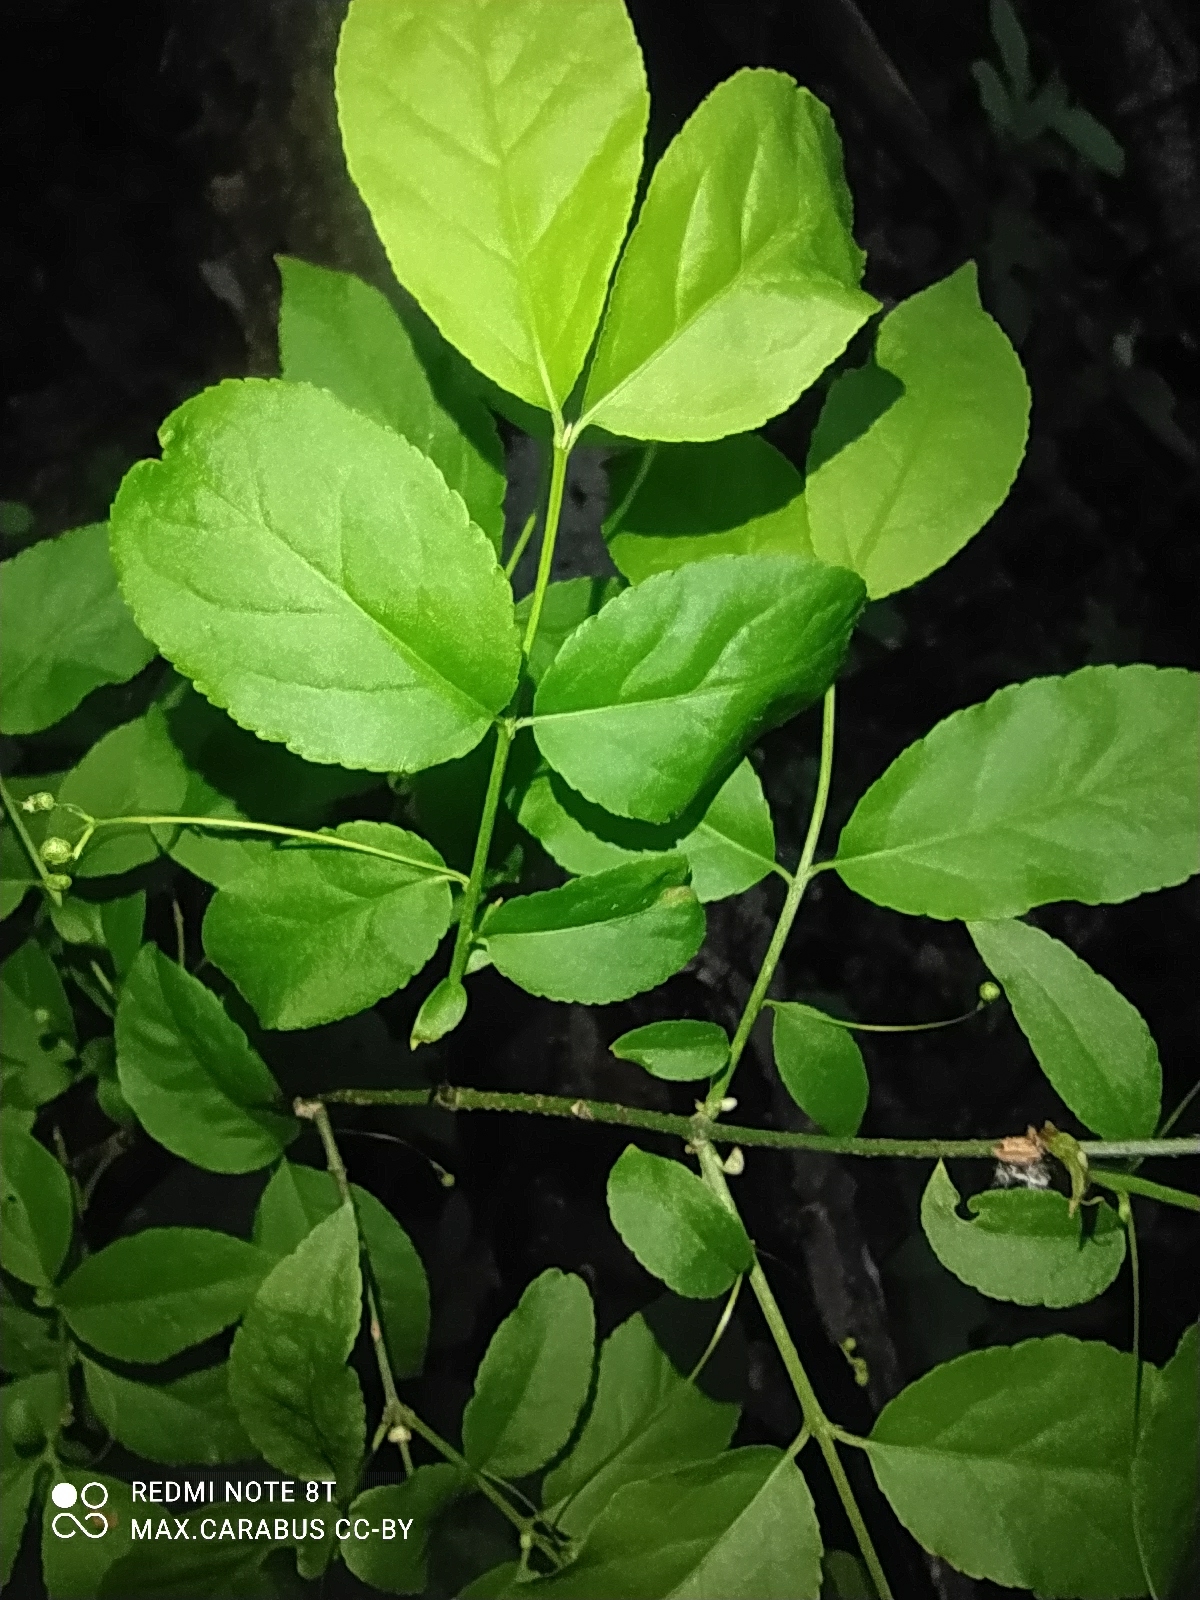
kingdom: Plantae
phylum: Tracheophyta
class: Magnoliopsida
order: Celastrales
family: Celastraceae
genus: Euonymus
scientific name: Euonymus verrucosus
